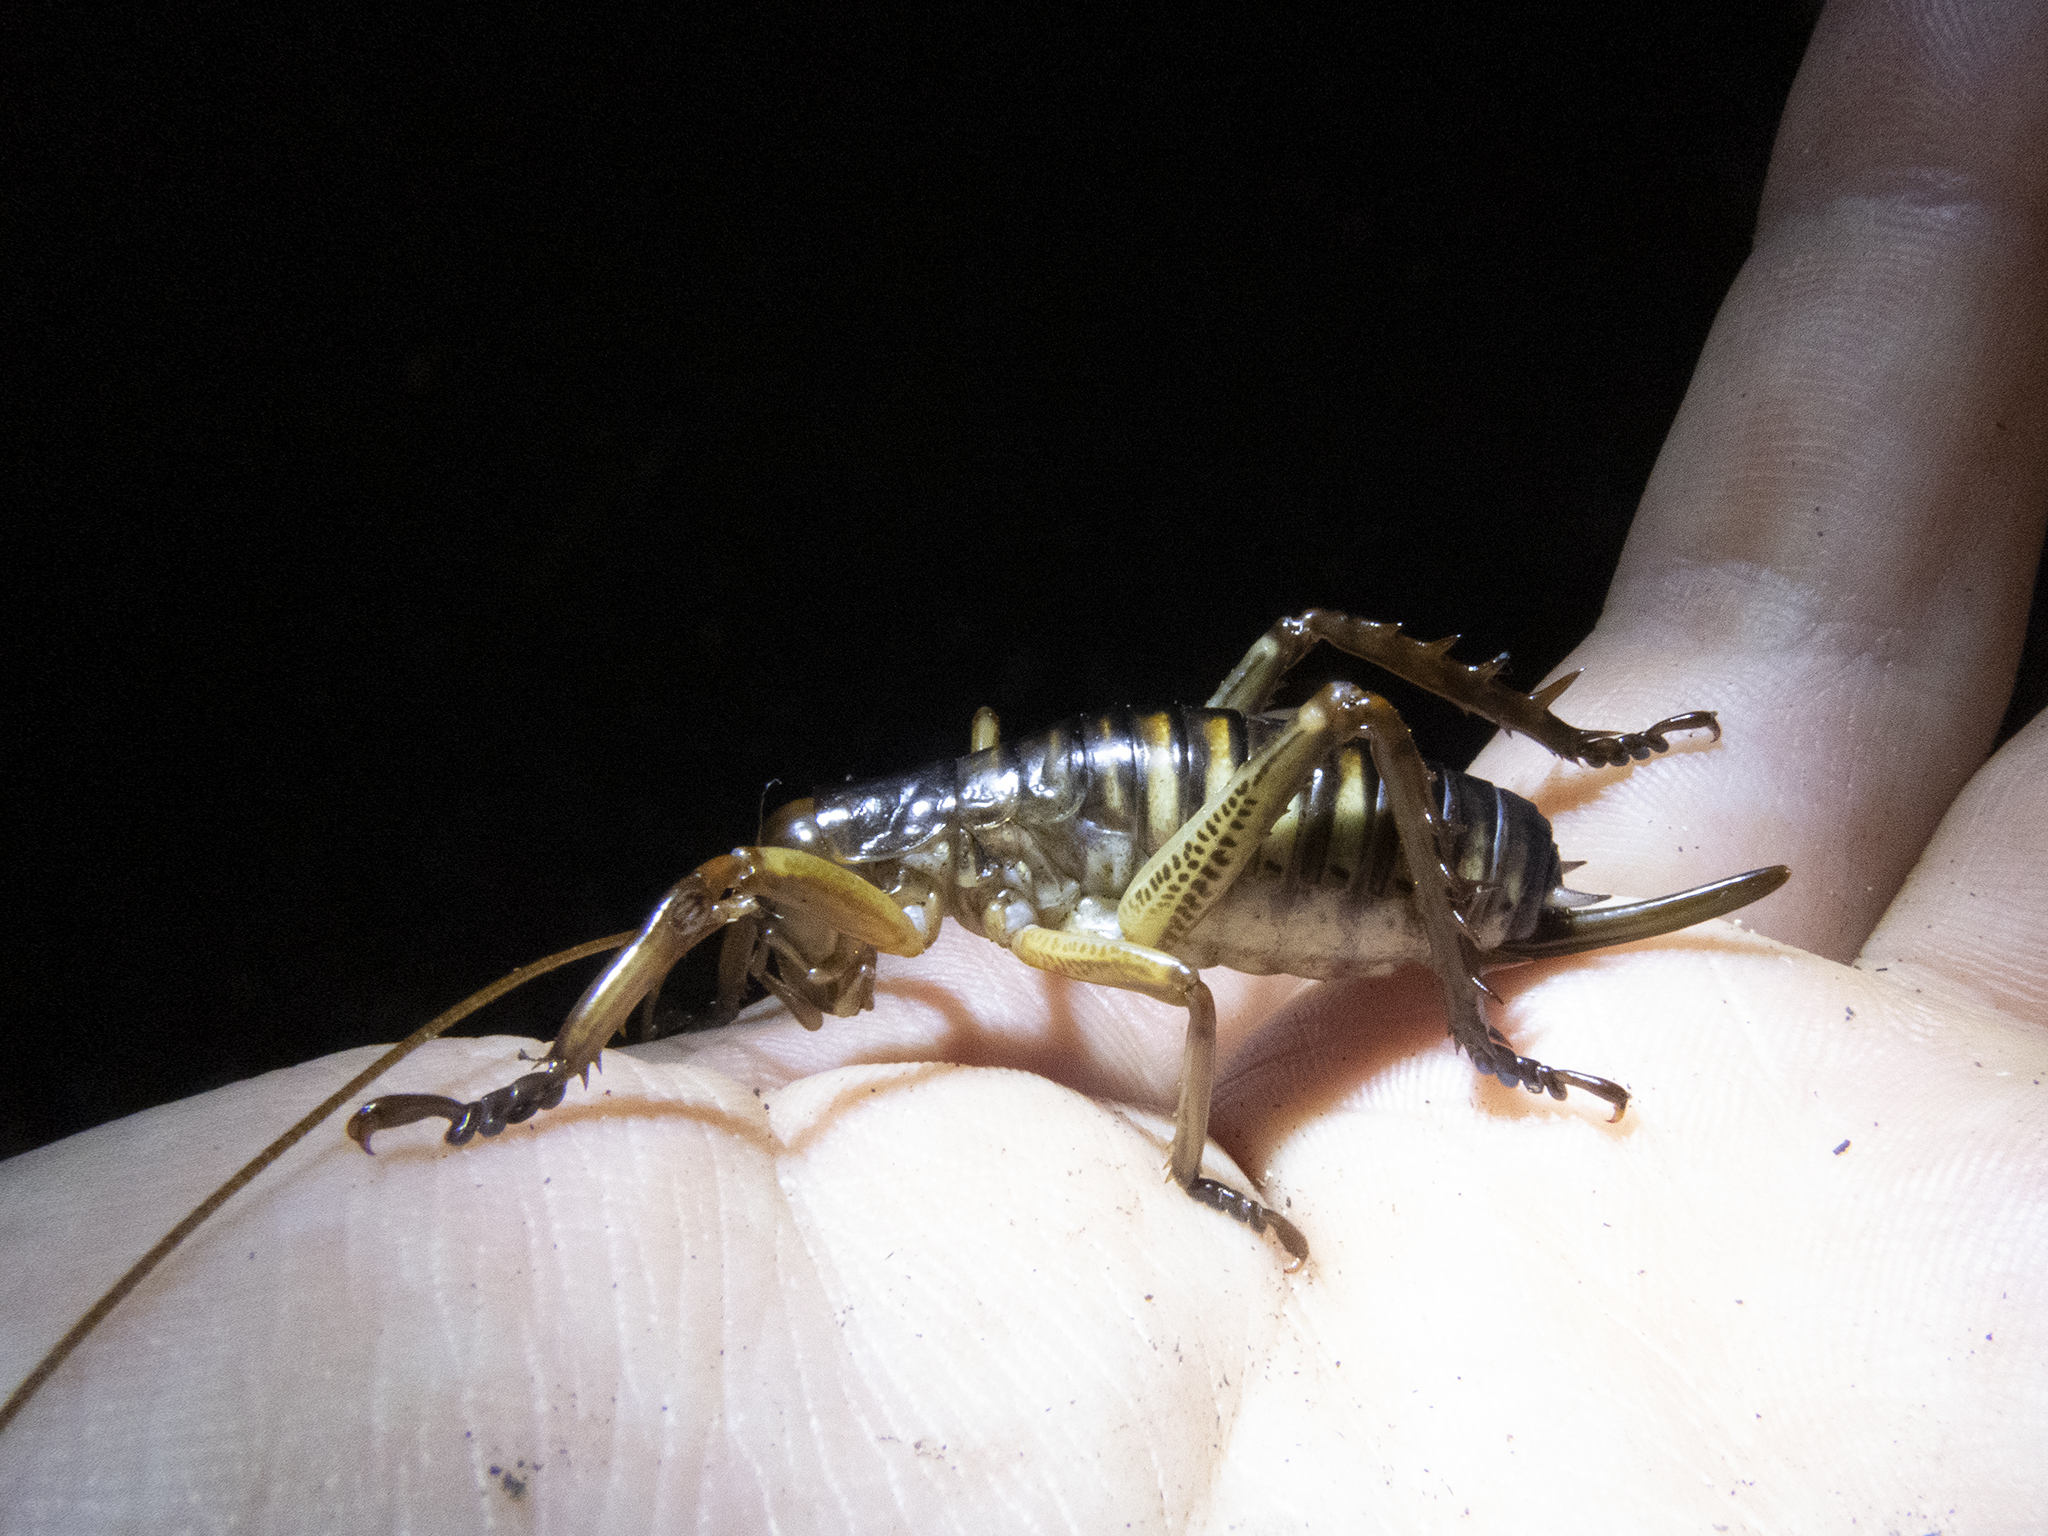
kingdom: Animalia
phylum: Arthropoda
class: Insecta
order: Orthoptera
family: Anostostomatidae
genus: Hemideina
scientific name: Hemideina crassidens
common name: Wellington tree weta
